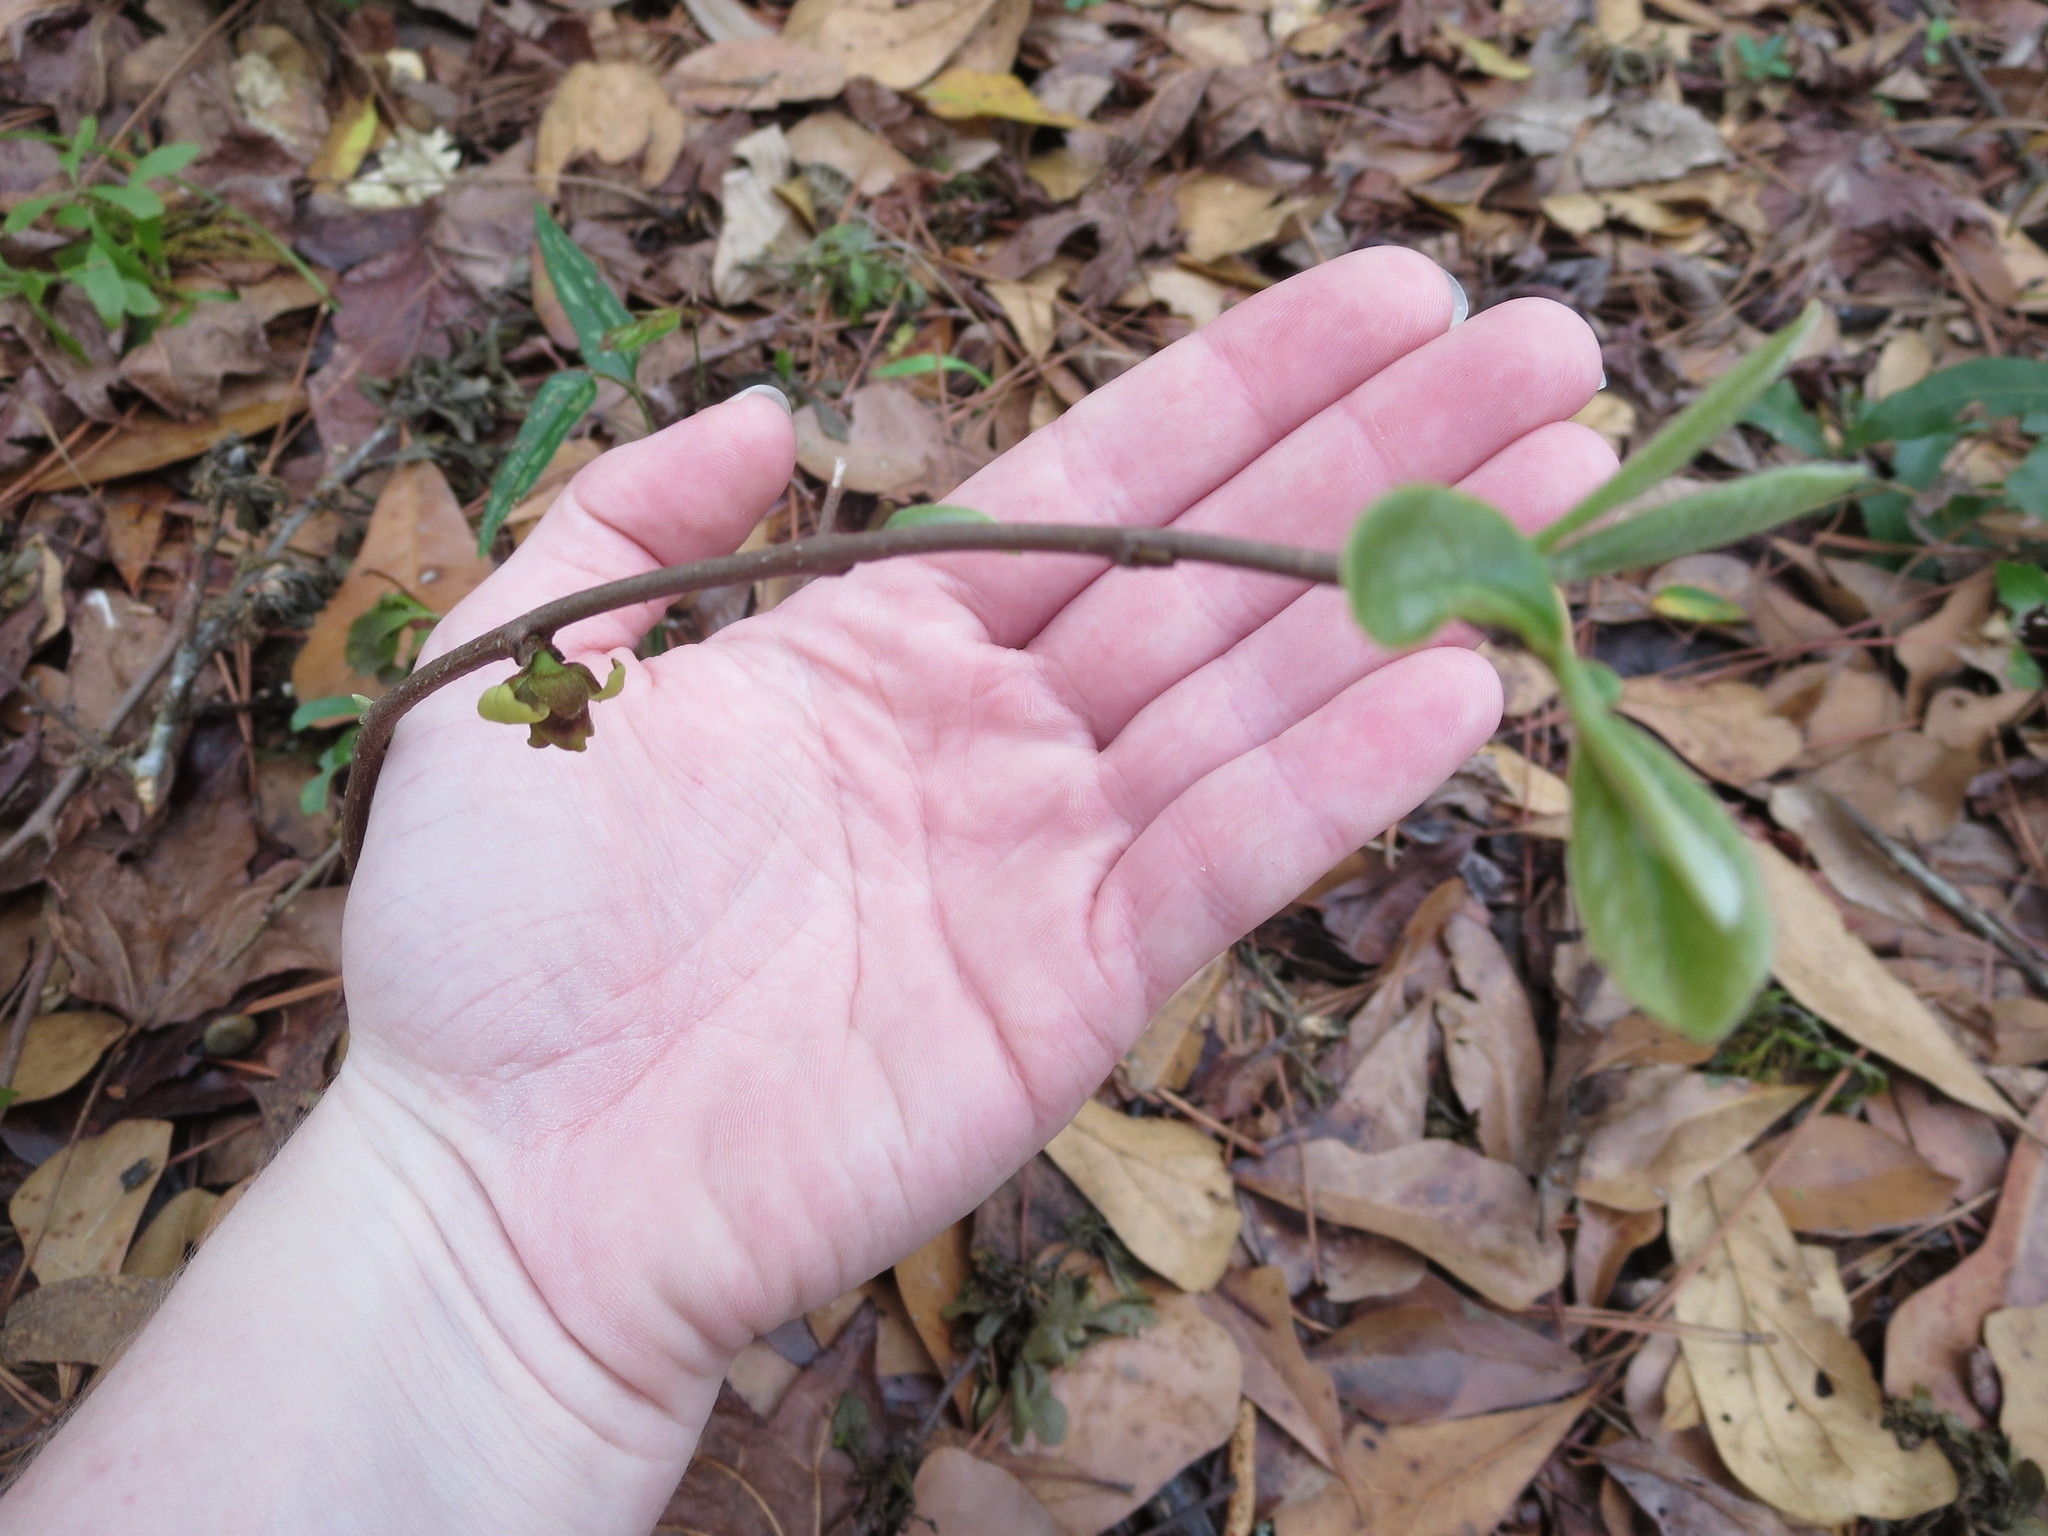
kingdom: Plantae
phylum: Tracheophyta
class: Magnoliopsida
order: Magnoliales
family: Annonaceae
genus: Asimina
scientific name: Asimina parviflora
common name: Dwarf pawpaw
